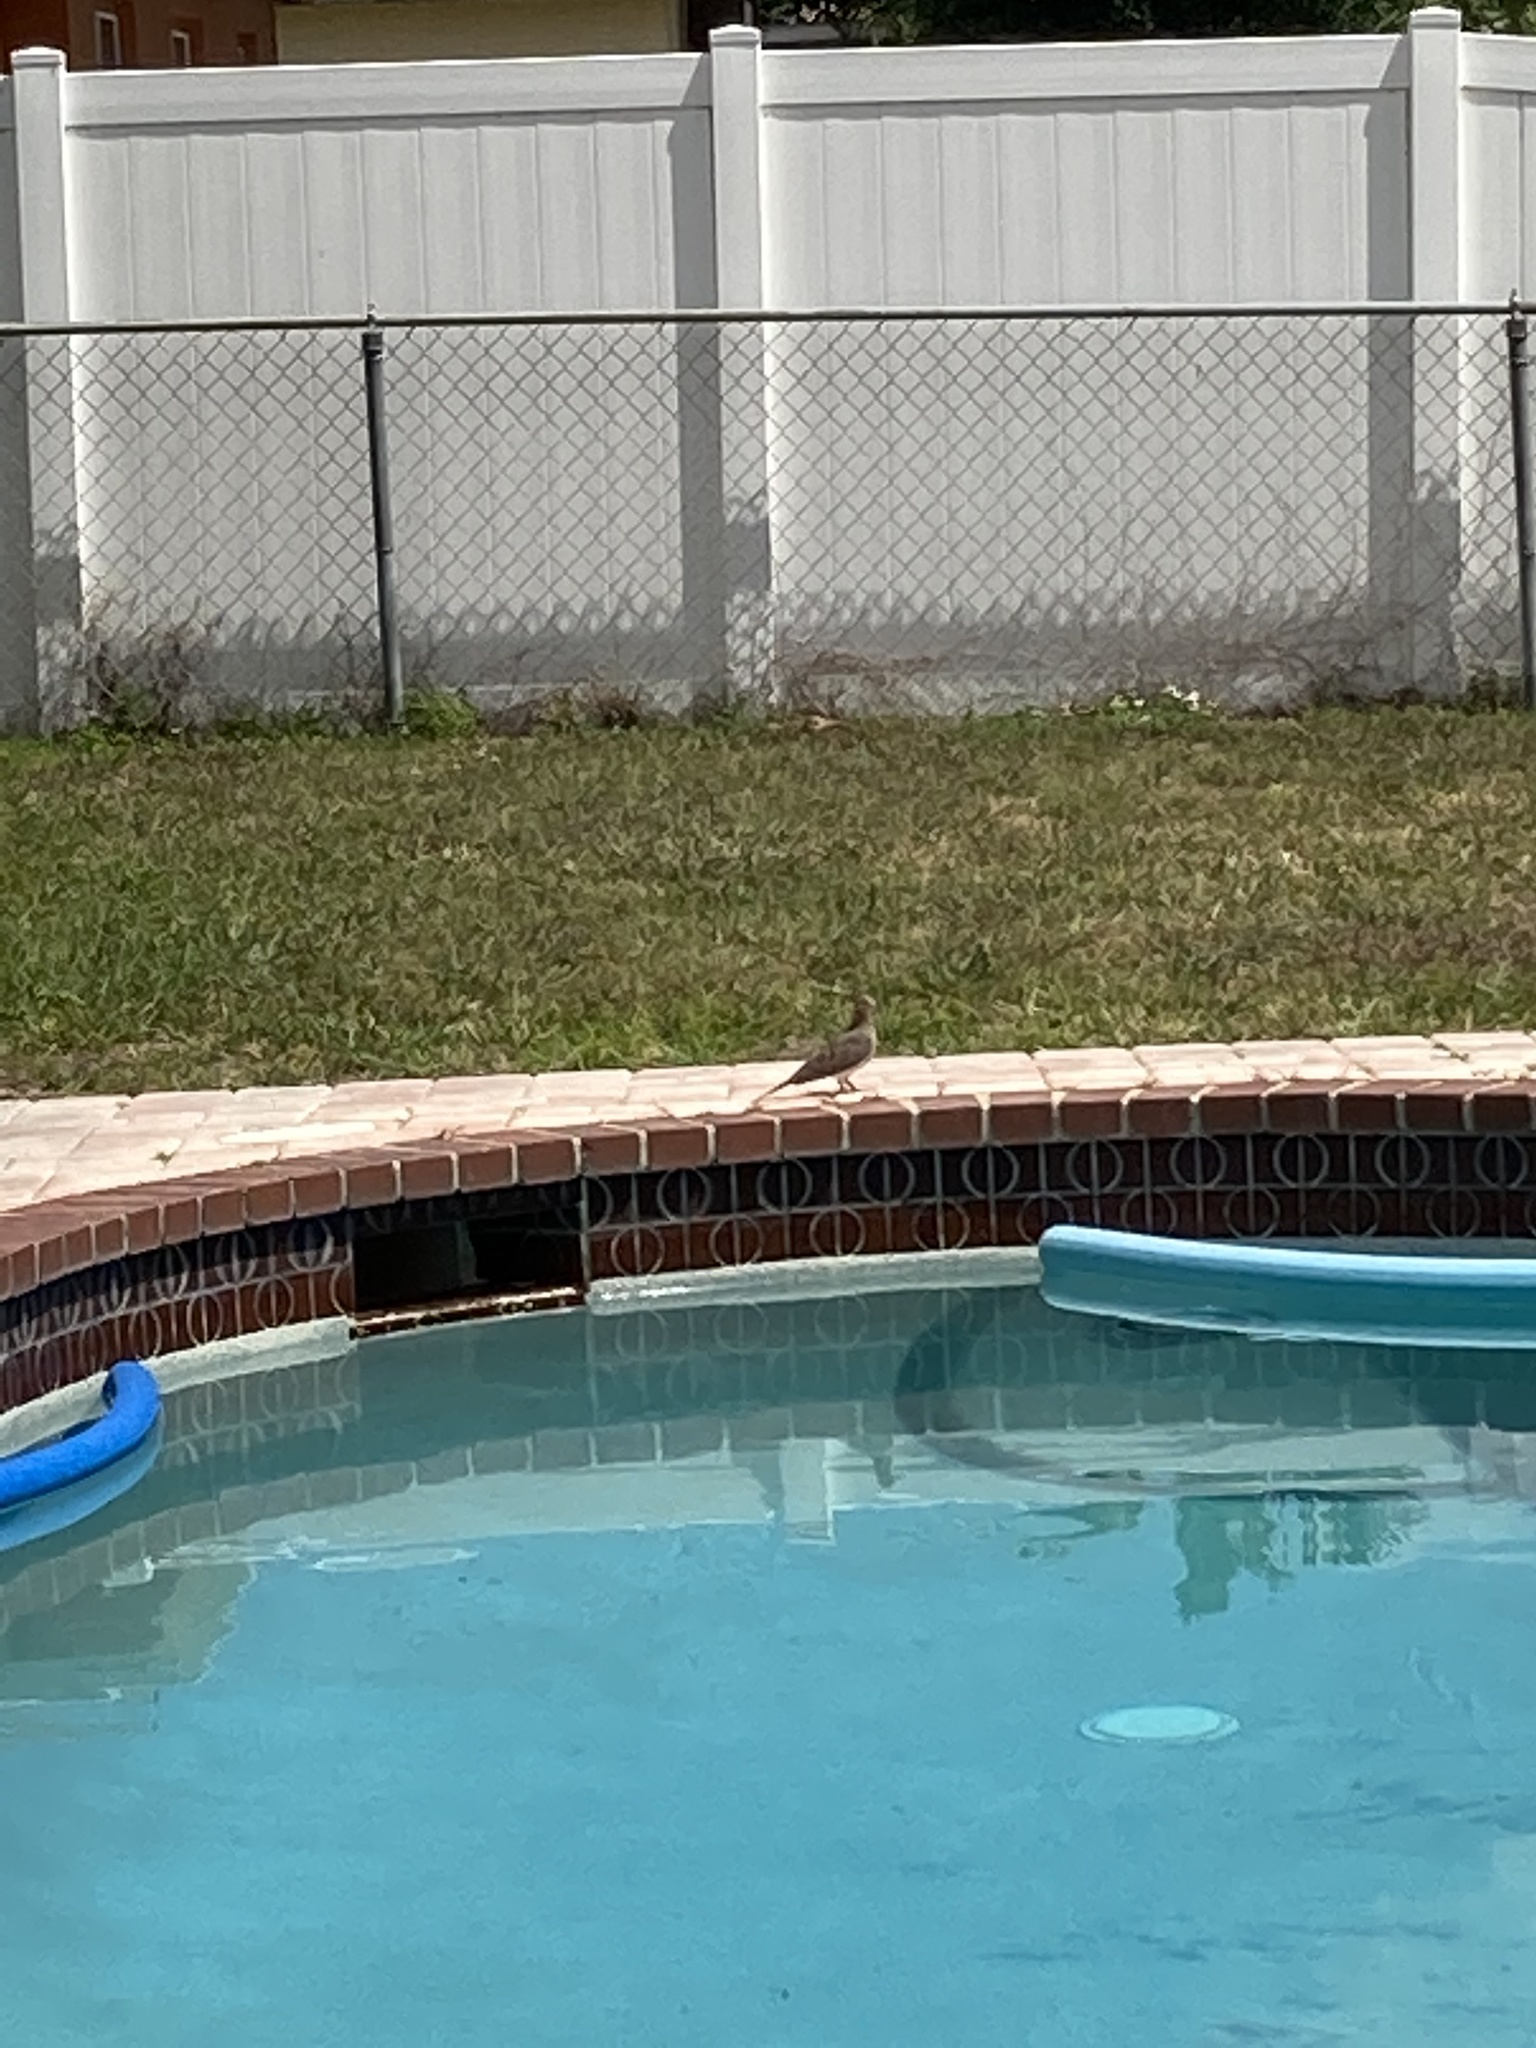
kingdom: Animalia
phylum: Chordata
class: Aves
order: Columbiformes
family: Columbidae
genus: Zenaida
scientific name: Zenaida macroura
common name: Mourning dove
